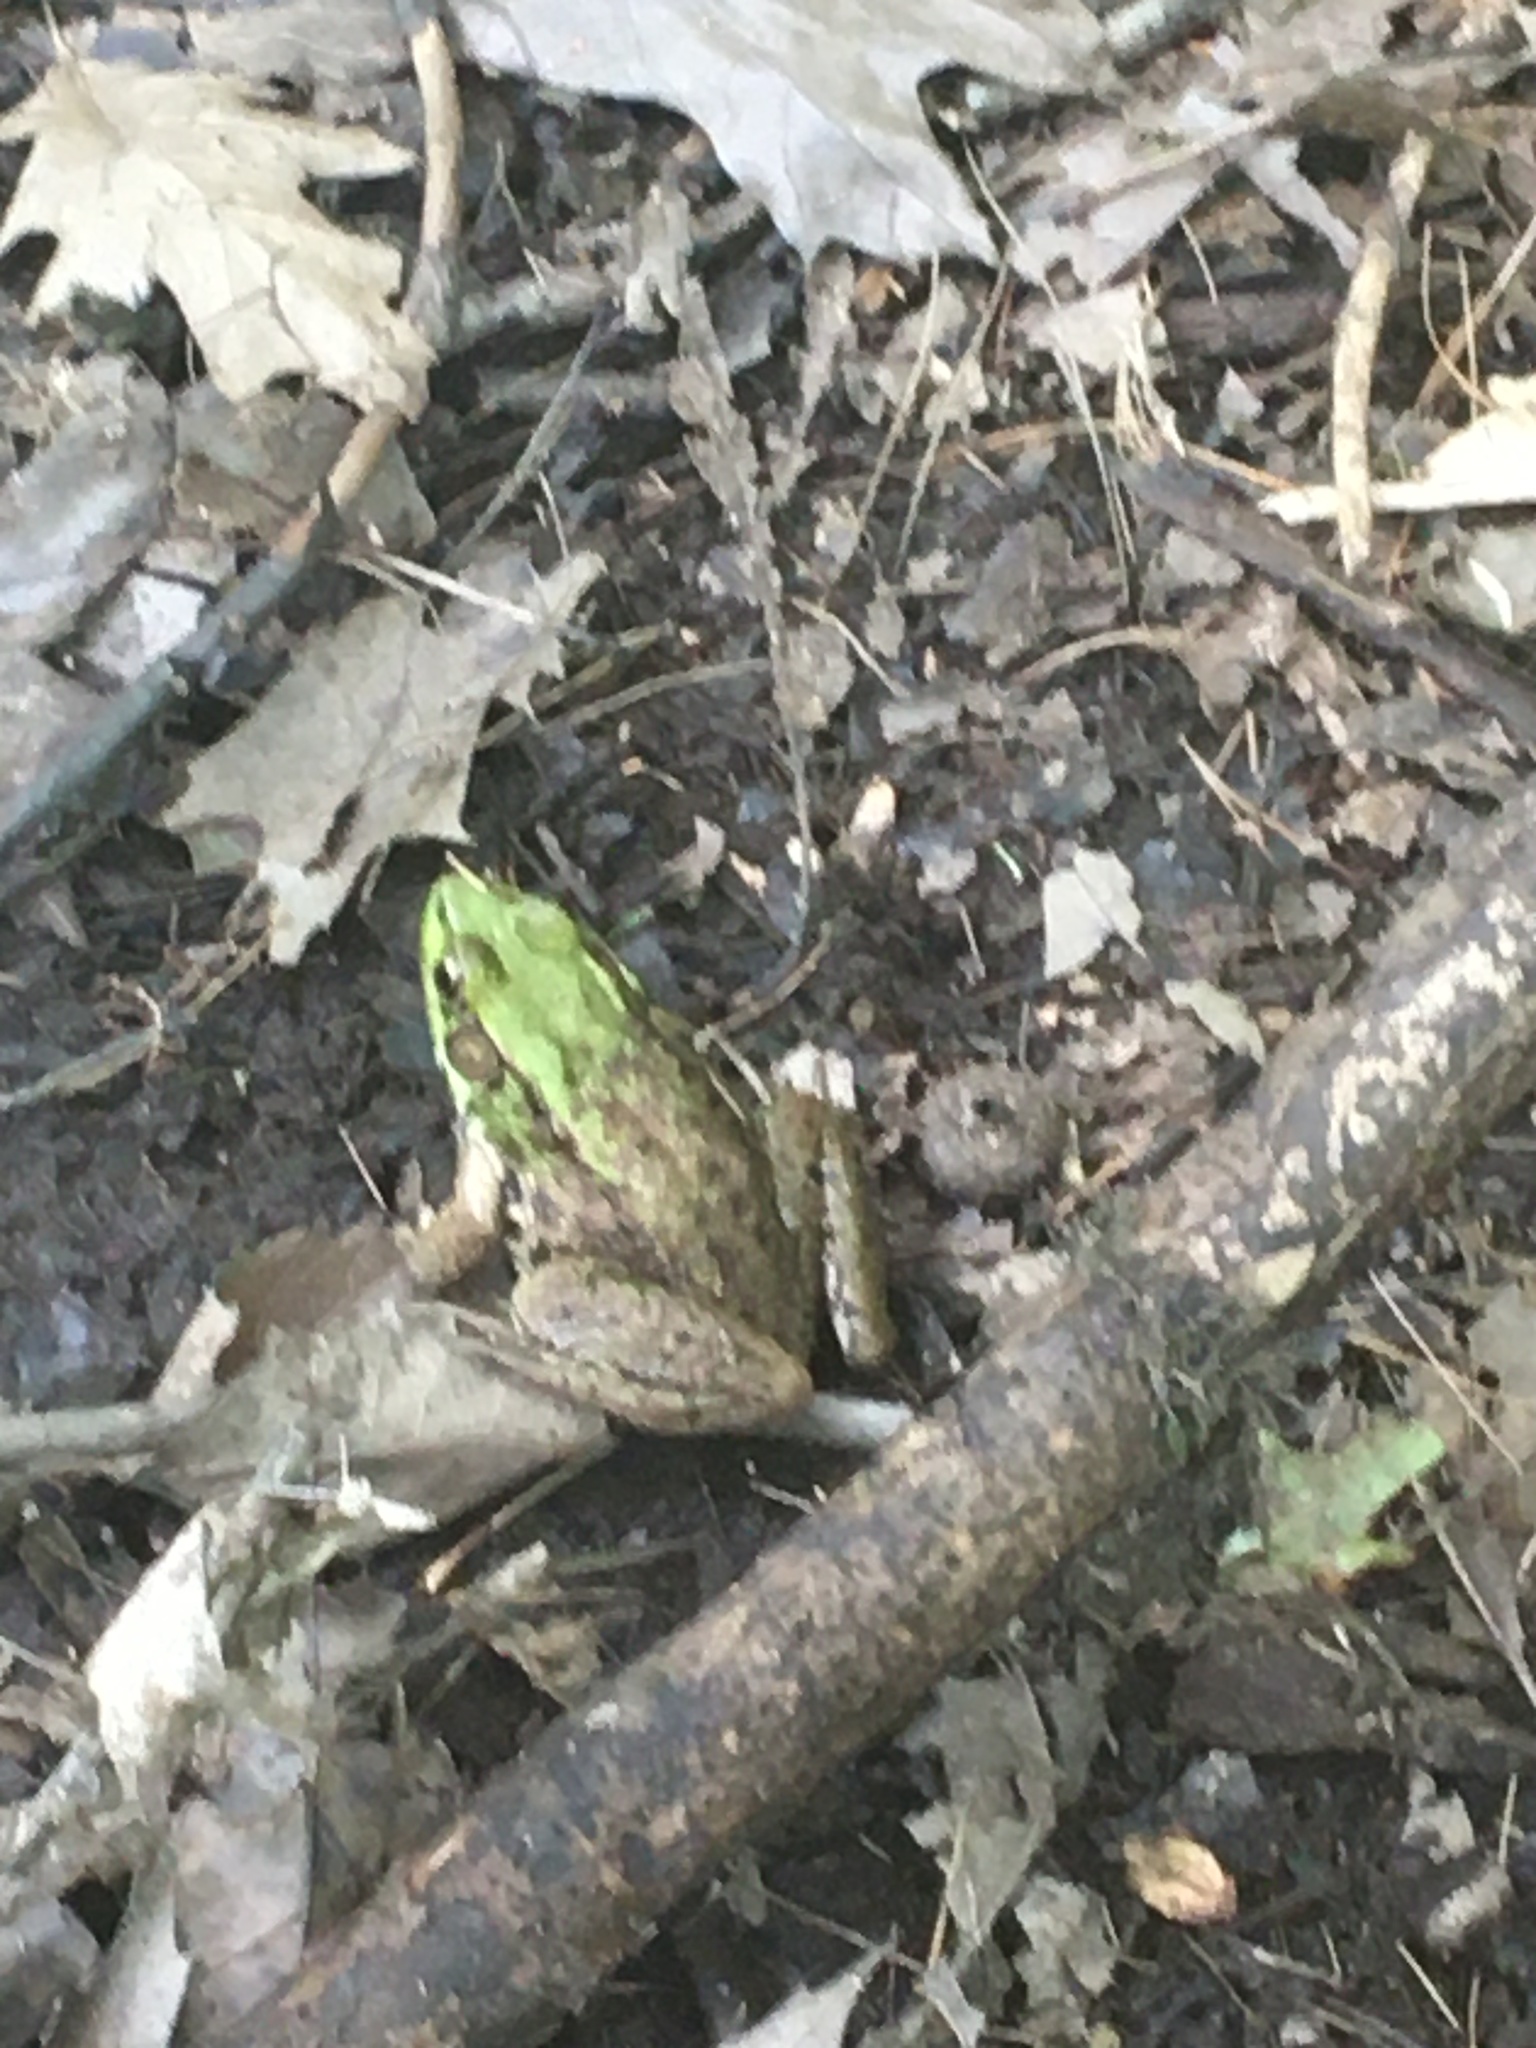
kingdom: Animalia
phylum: Chordata
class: Amphibia
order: Anura
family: Ranidae
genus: Lithobates
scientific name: Lithobates clamitans
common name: Green frog
